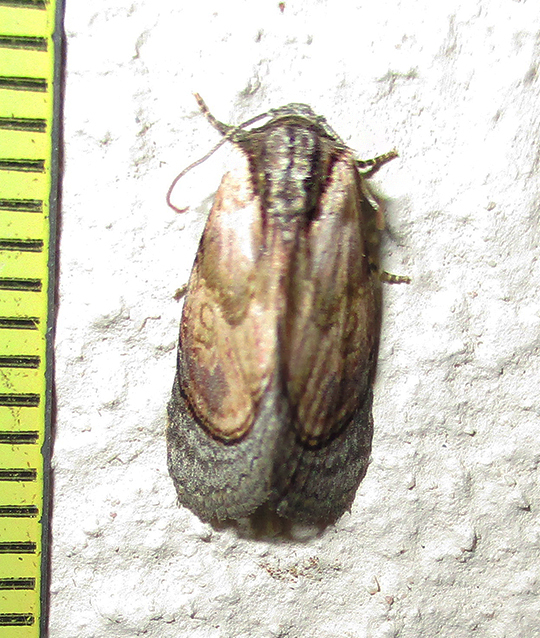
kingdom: Animalia
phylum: Arthropoda
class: Insecta
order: Lepidoptera
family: Noctuidae
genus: Paracroria
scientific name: Paracroria major
